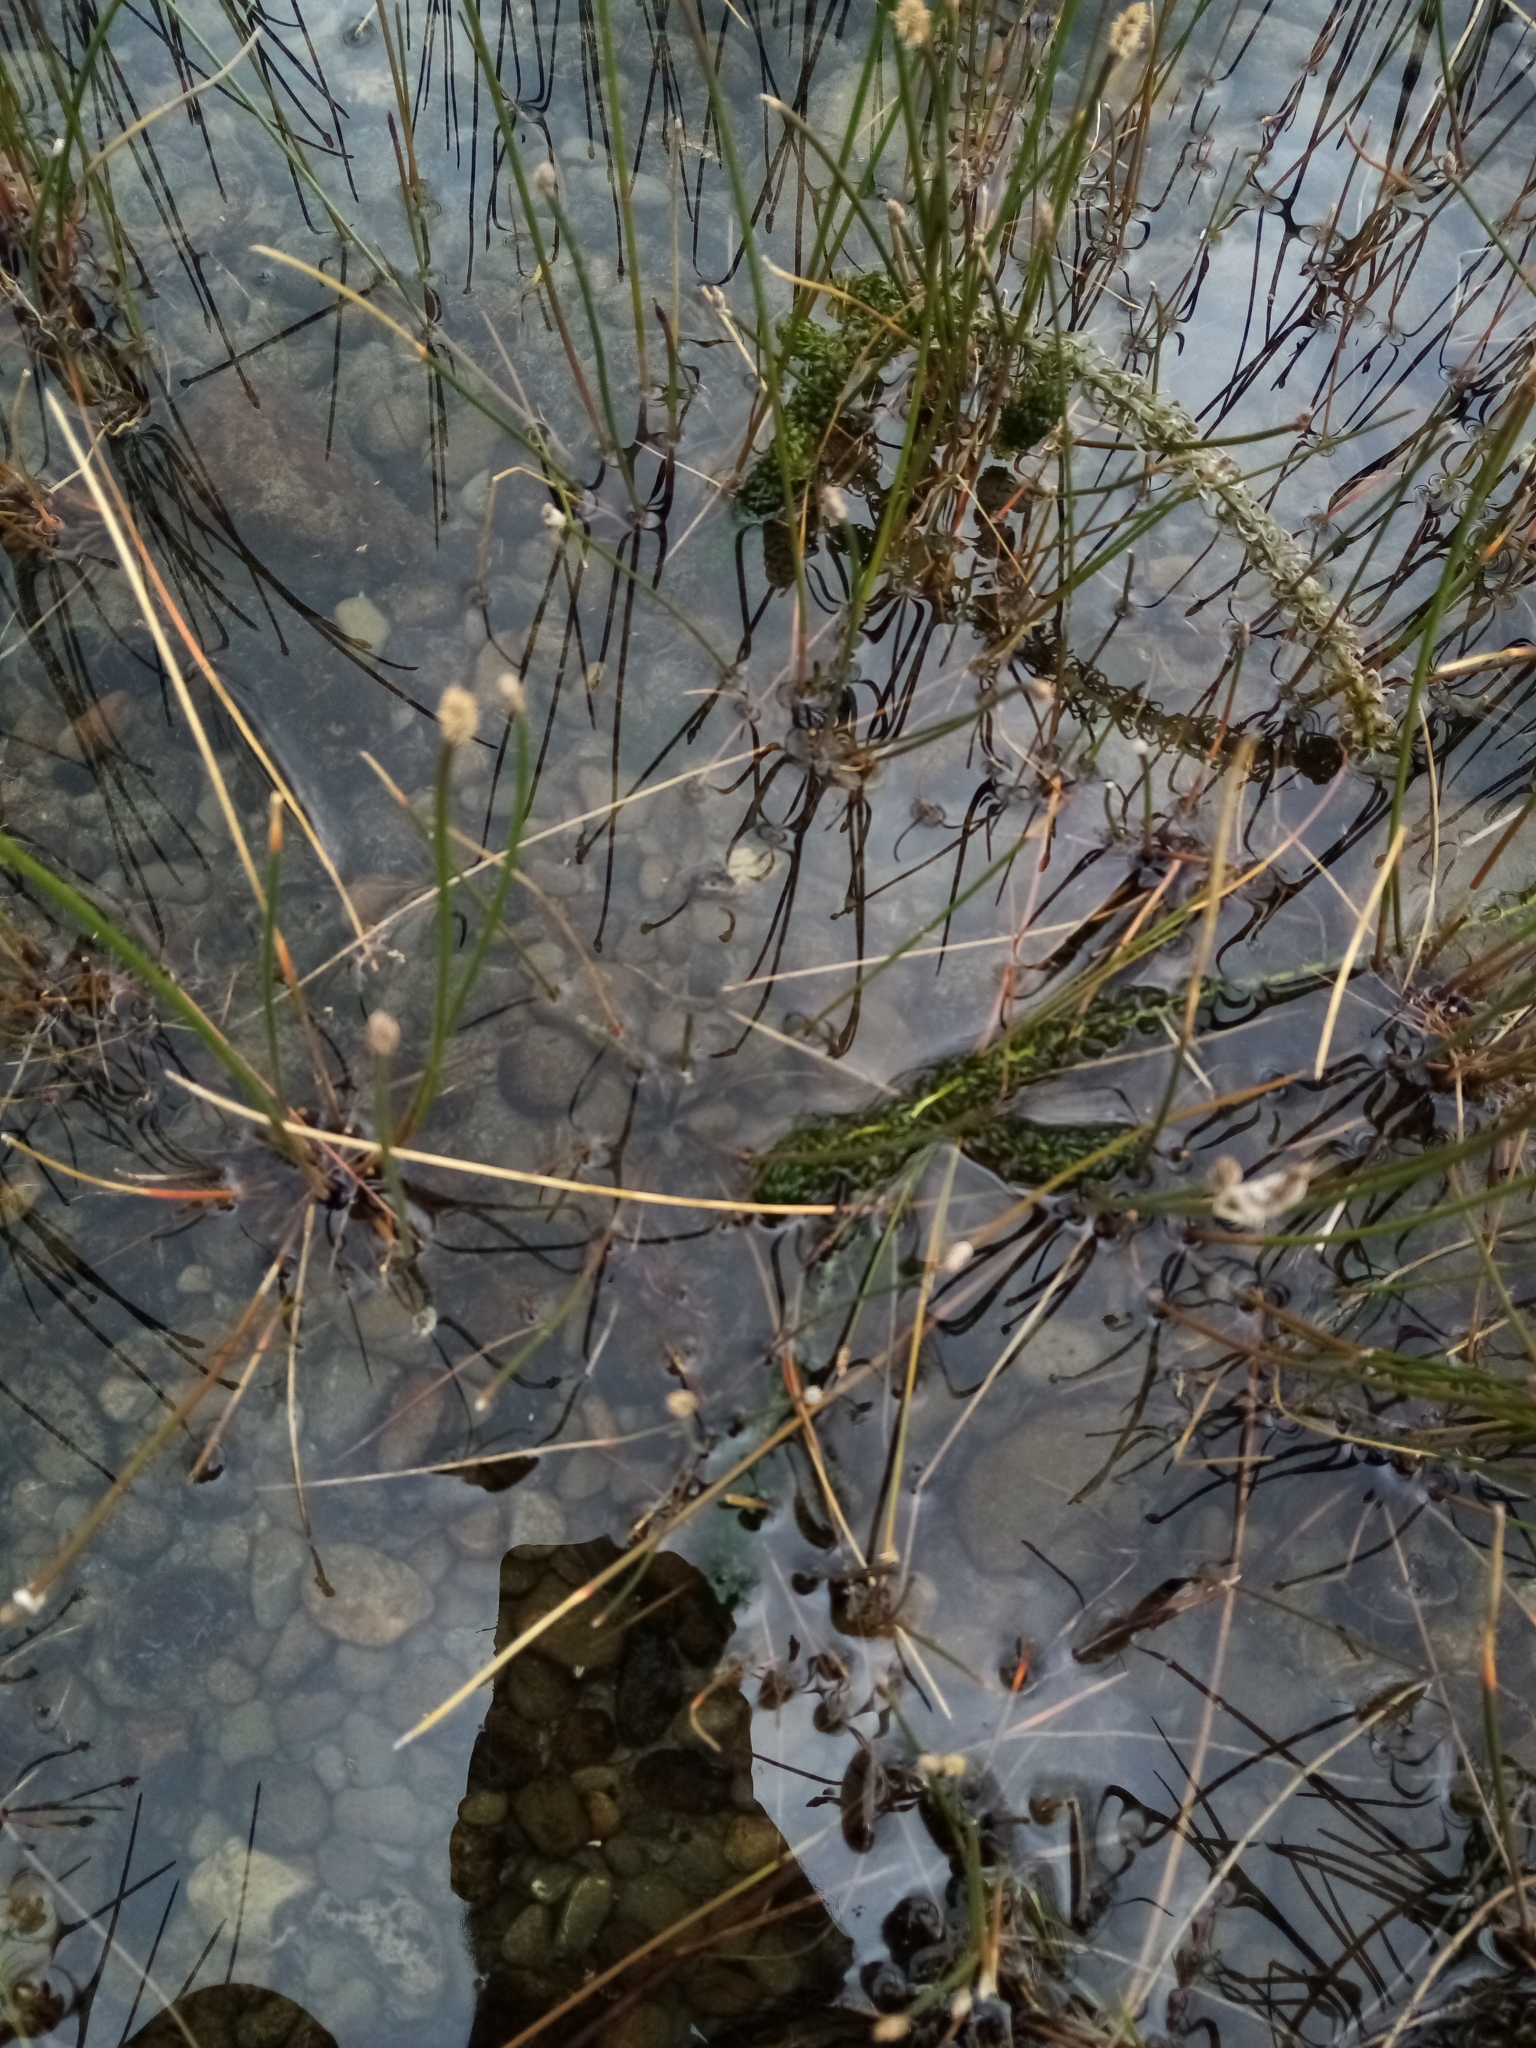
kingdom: Plantae
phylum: Tracheophyta
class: Liliopsida
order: Alismatales
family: Hydrocharitaceae
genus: Lagarosiphon
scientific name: Lagarosiphon major
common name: Curly waterweed
